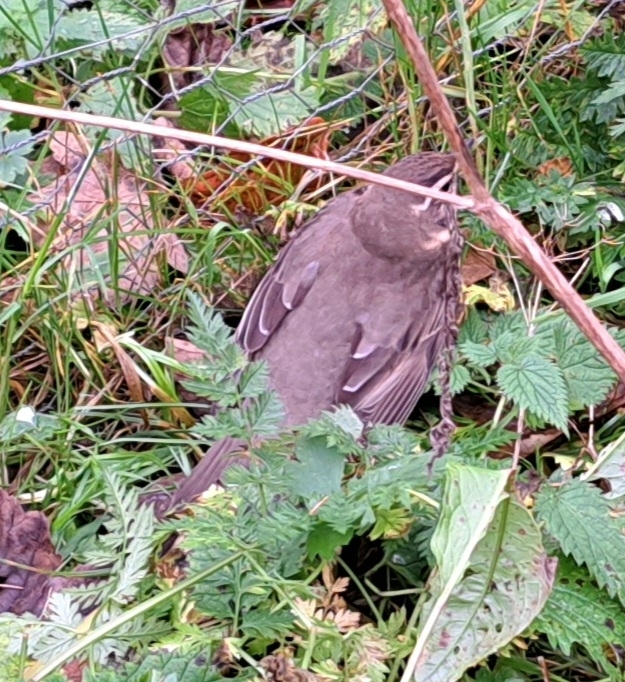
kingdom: Animalia
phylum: Chordata
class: Aves
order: Passeriformes
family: Turdidae
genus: Turdus
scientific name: Turdus iliacus
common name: Redwing
